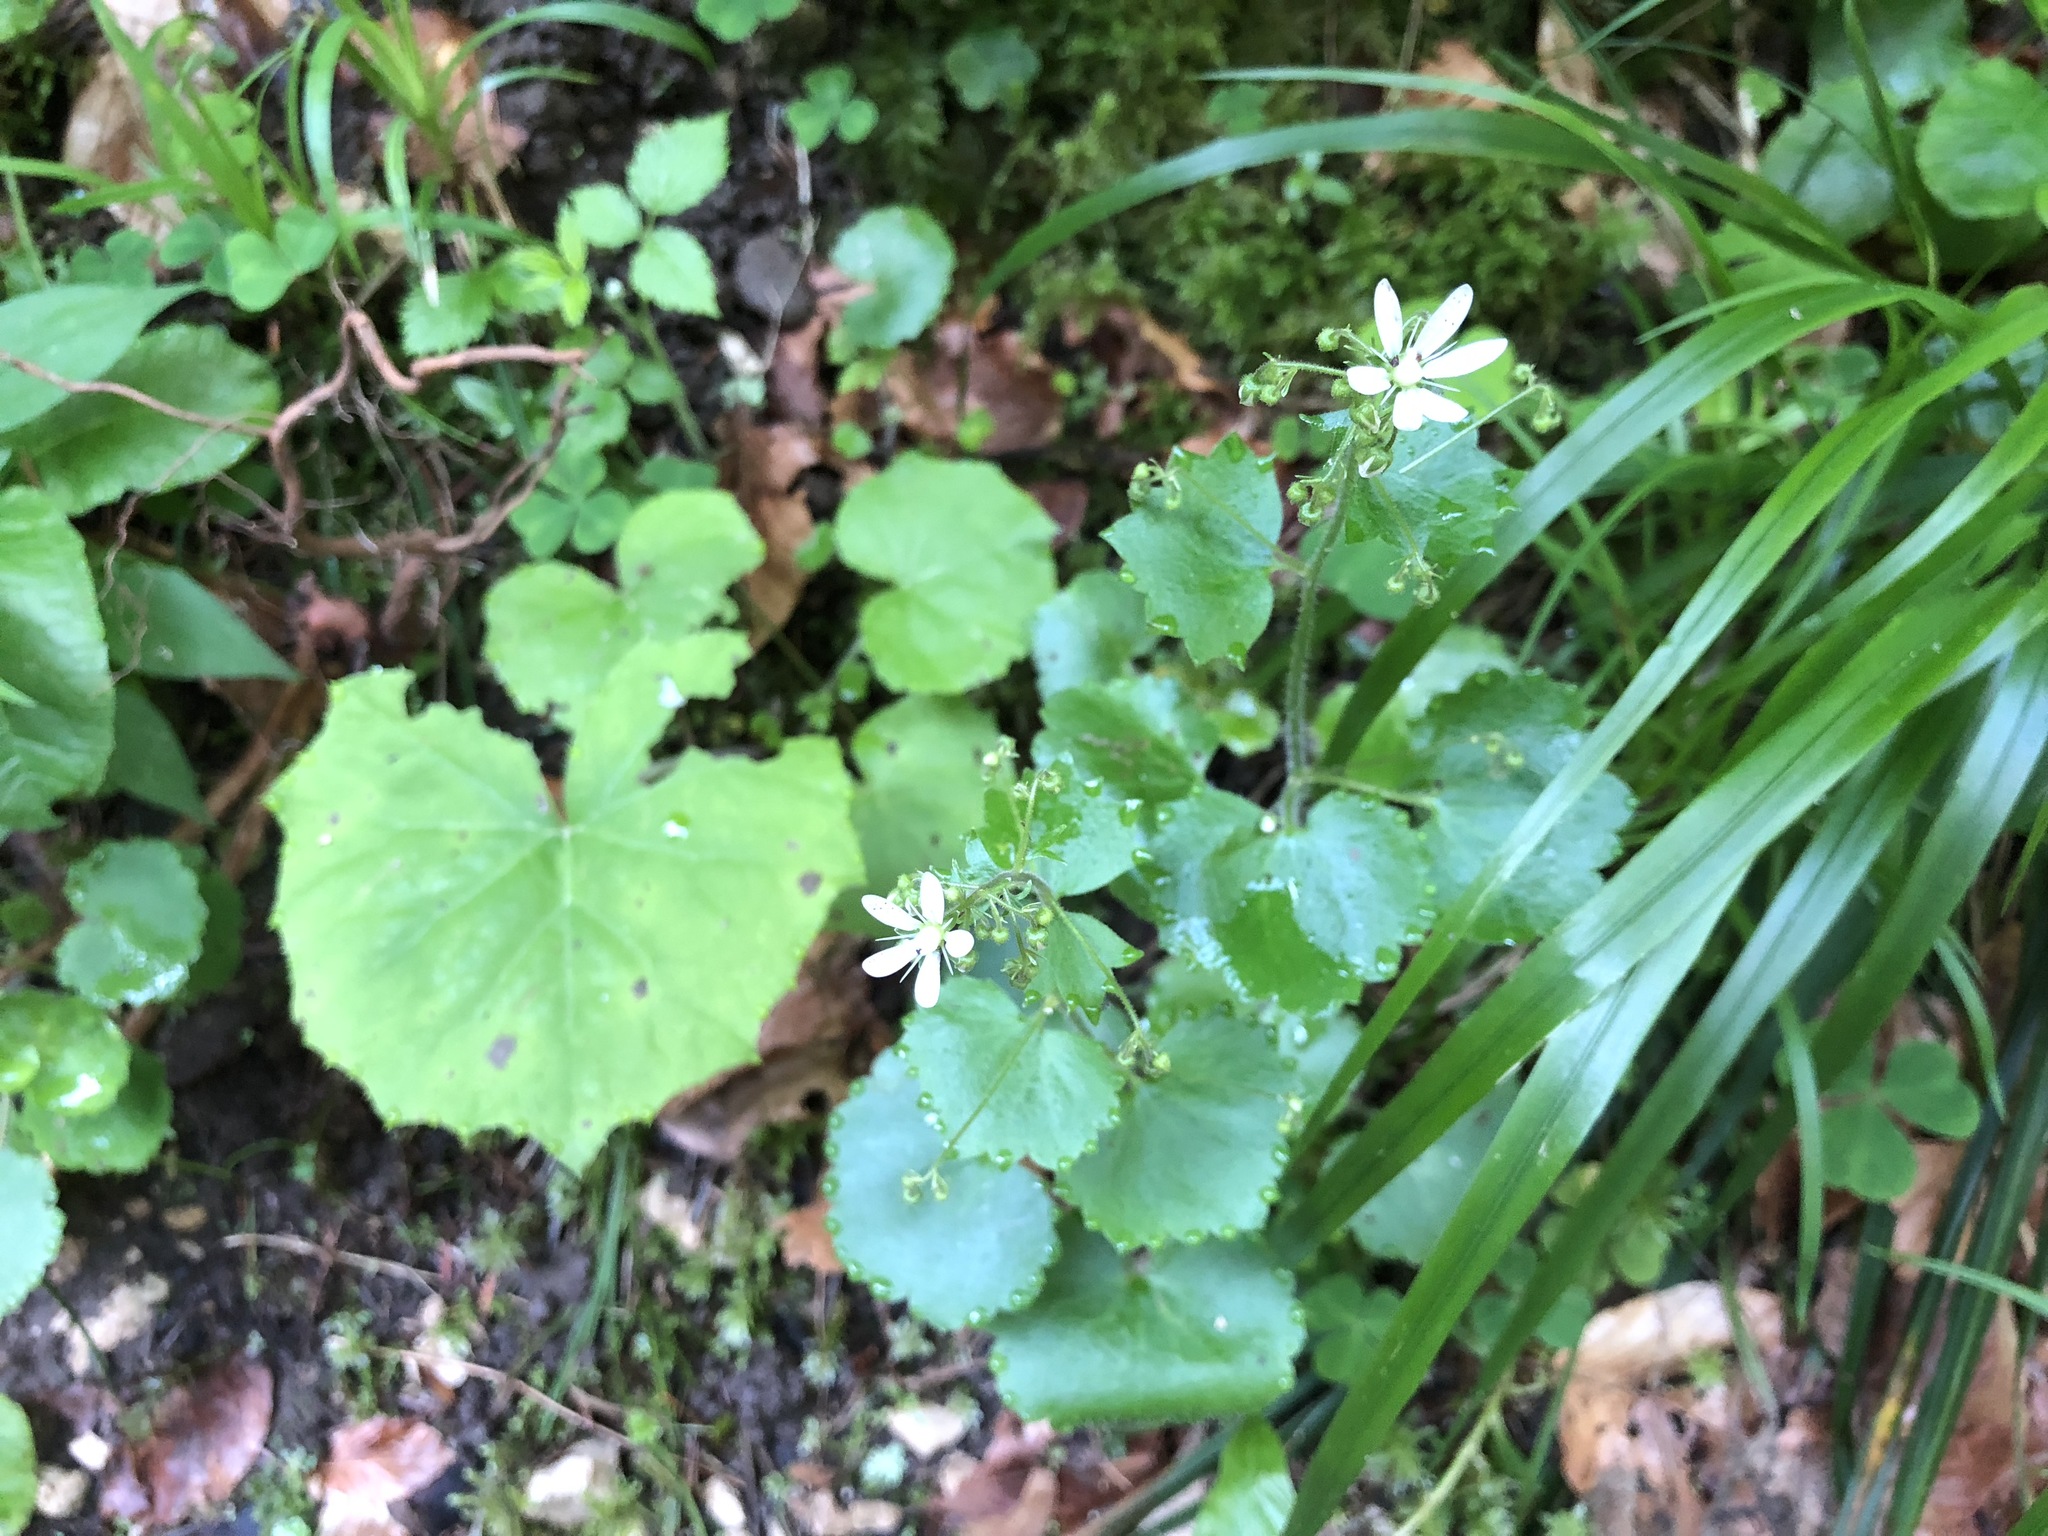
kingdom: Plantae
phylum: Tracheophyta
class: Magnoliopsida
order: Saxifragales
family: Saxifragaceae
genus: Saxifraga
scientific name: Saxifraga rotundifolia
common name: Round-leaved saxifrage
